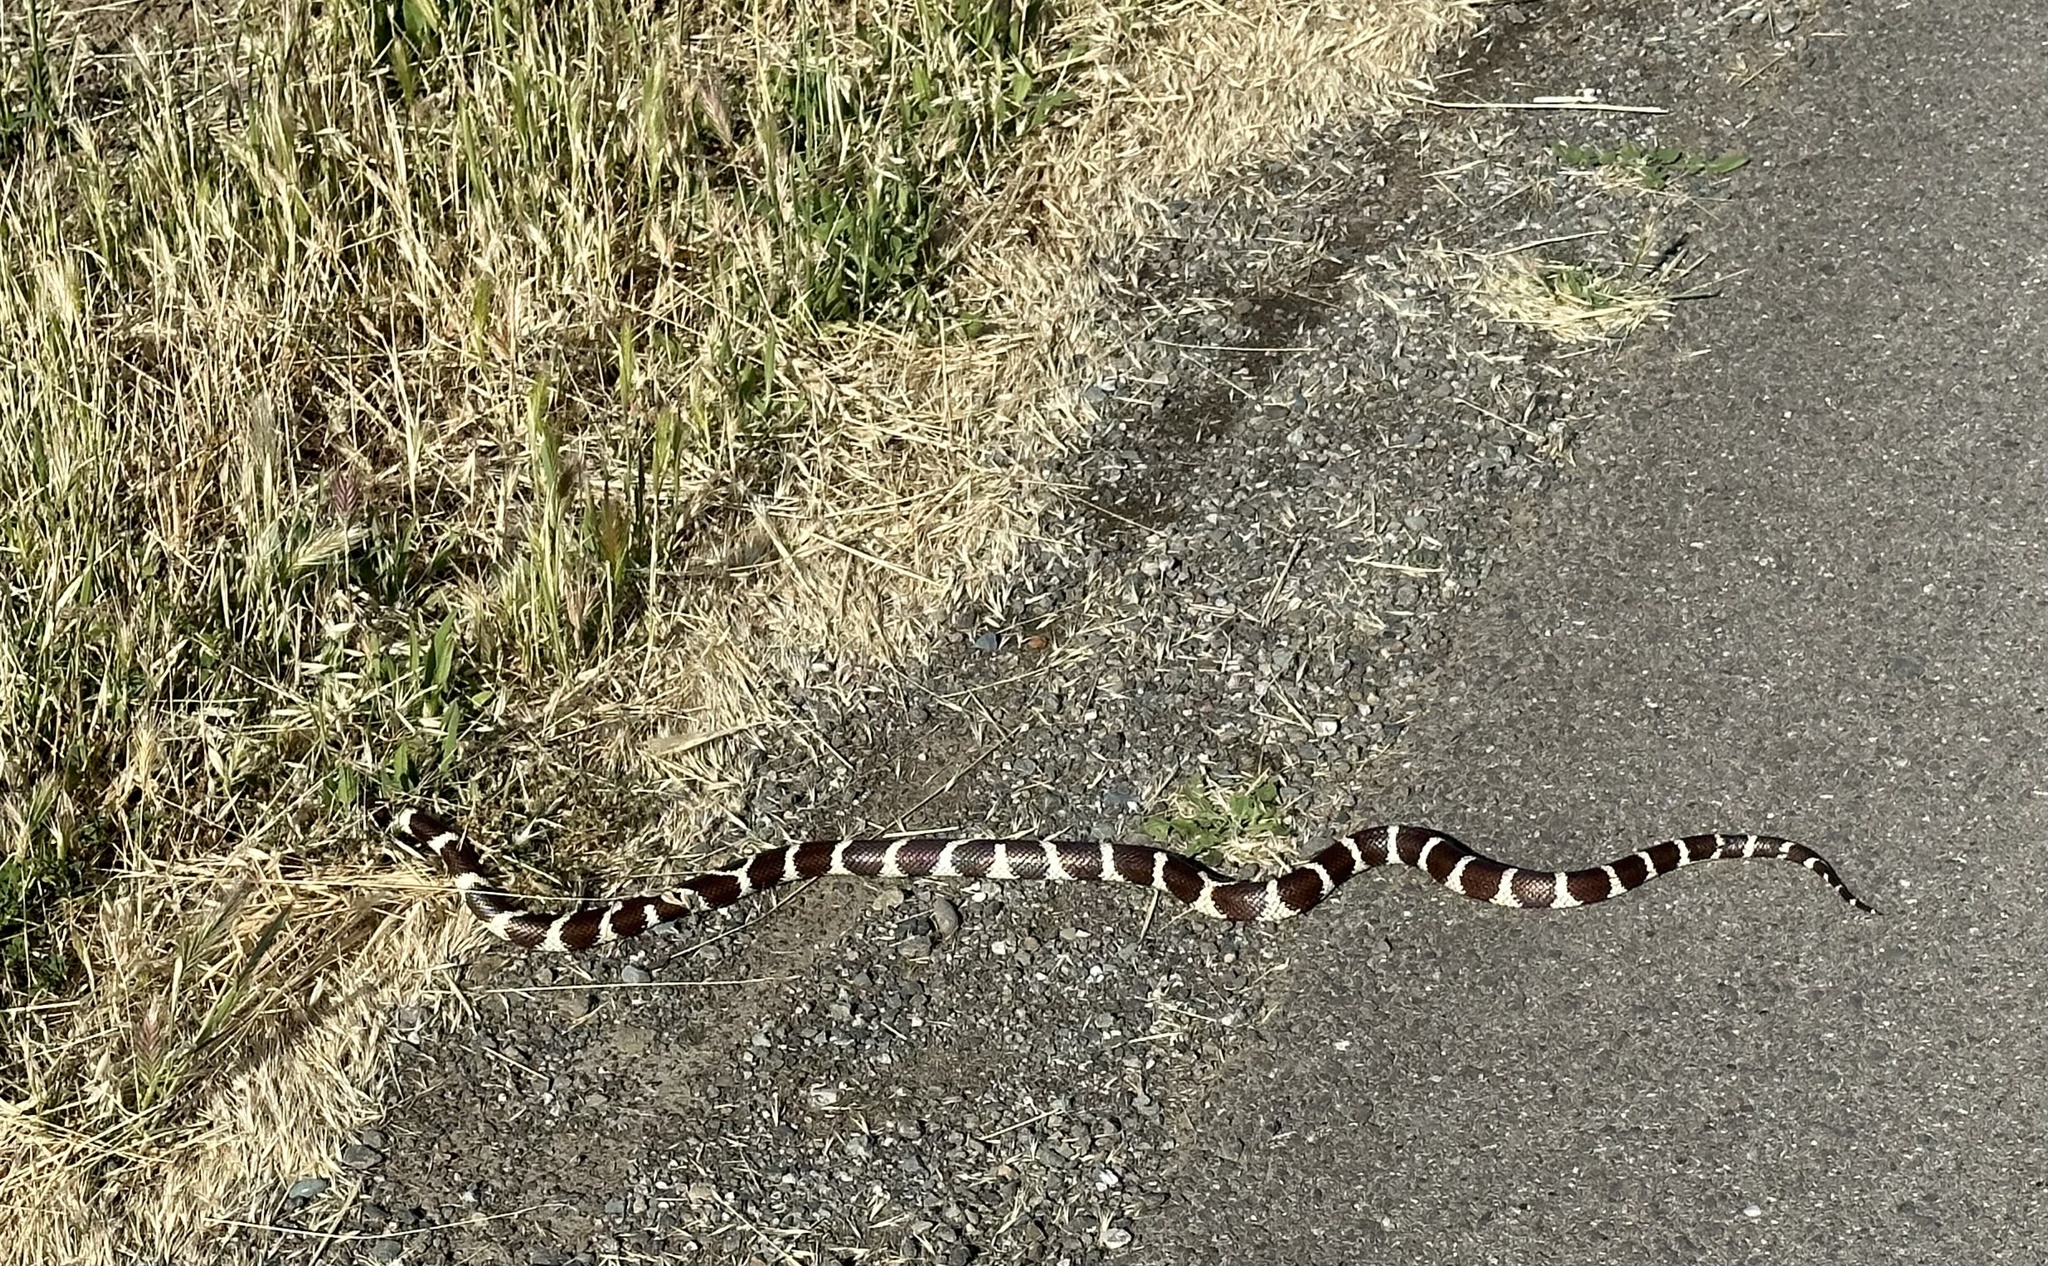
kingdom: Animalia
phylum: Chordata
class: Squamata
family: Colubridae
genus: Lampropeltis
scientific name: Lampropeltis californiae
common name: California kingsnake
